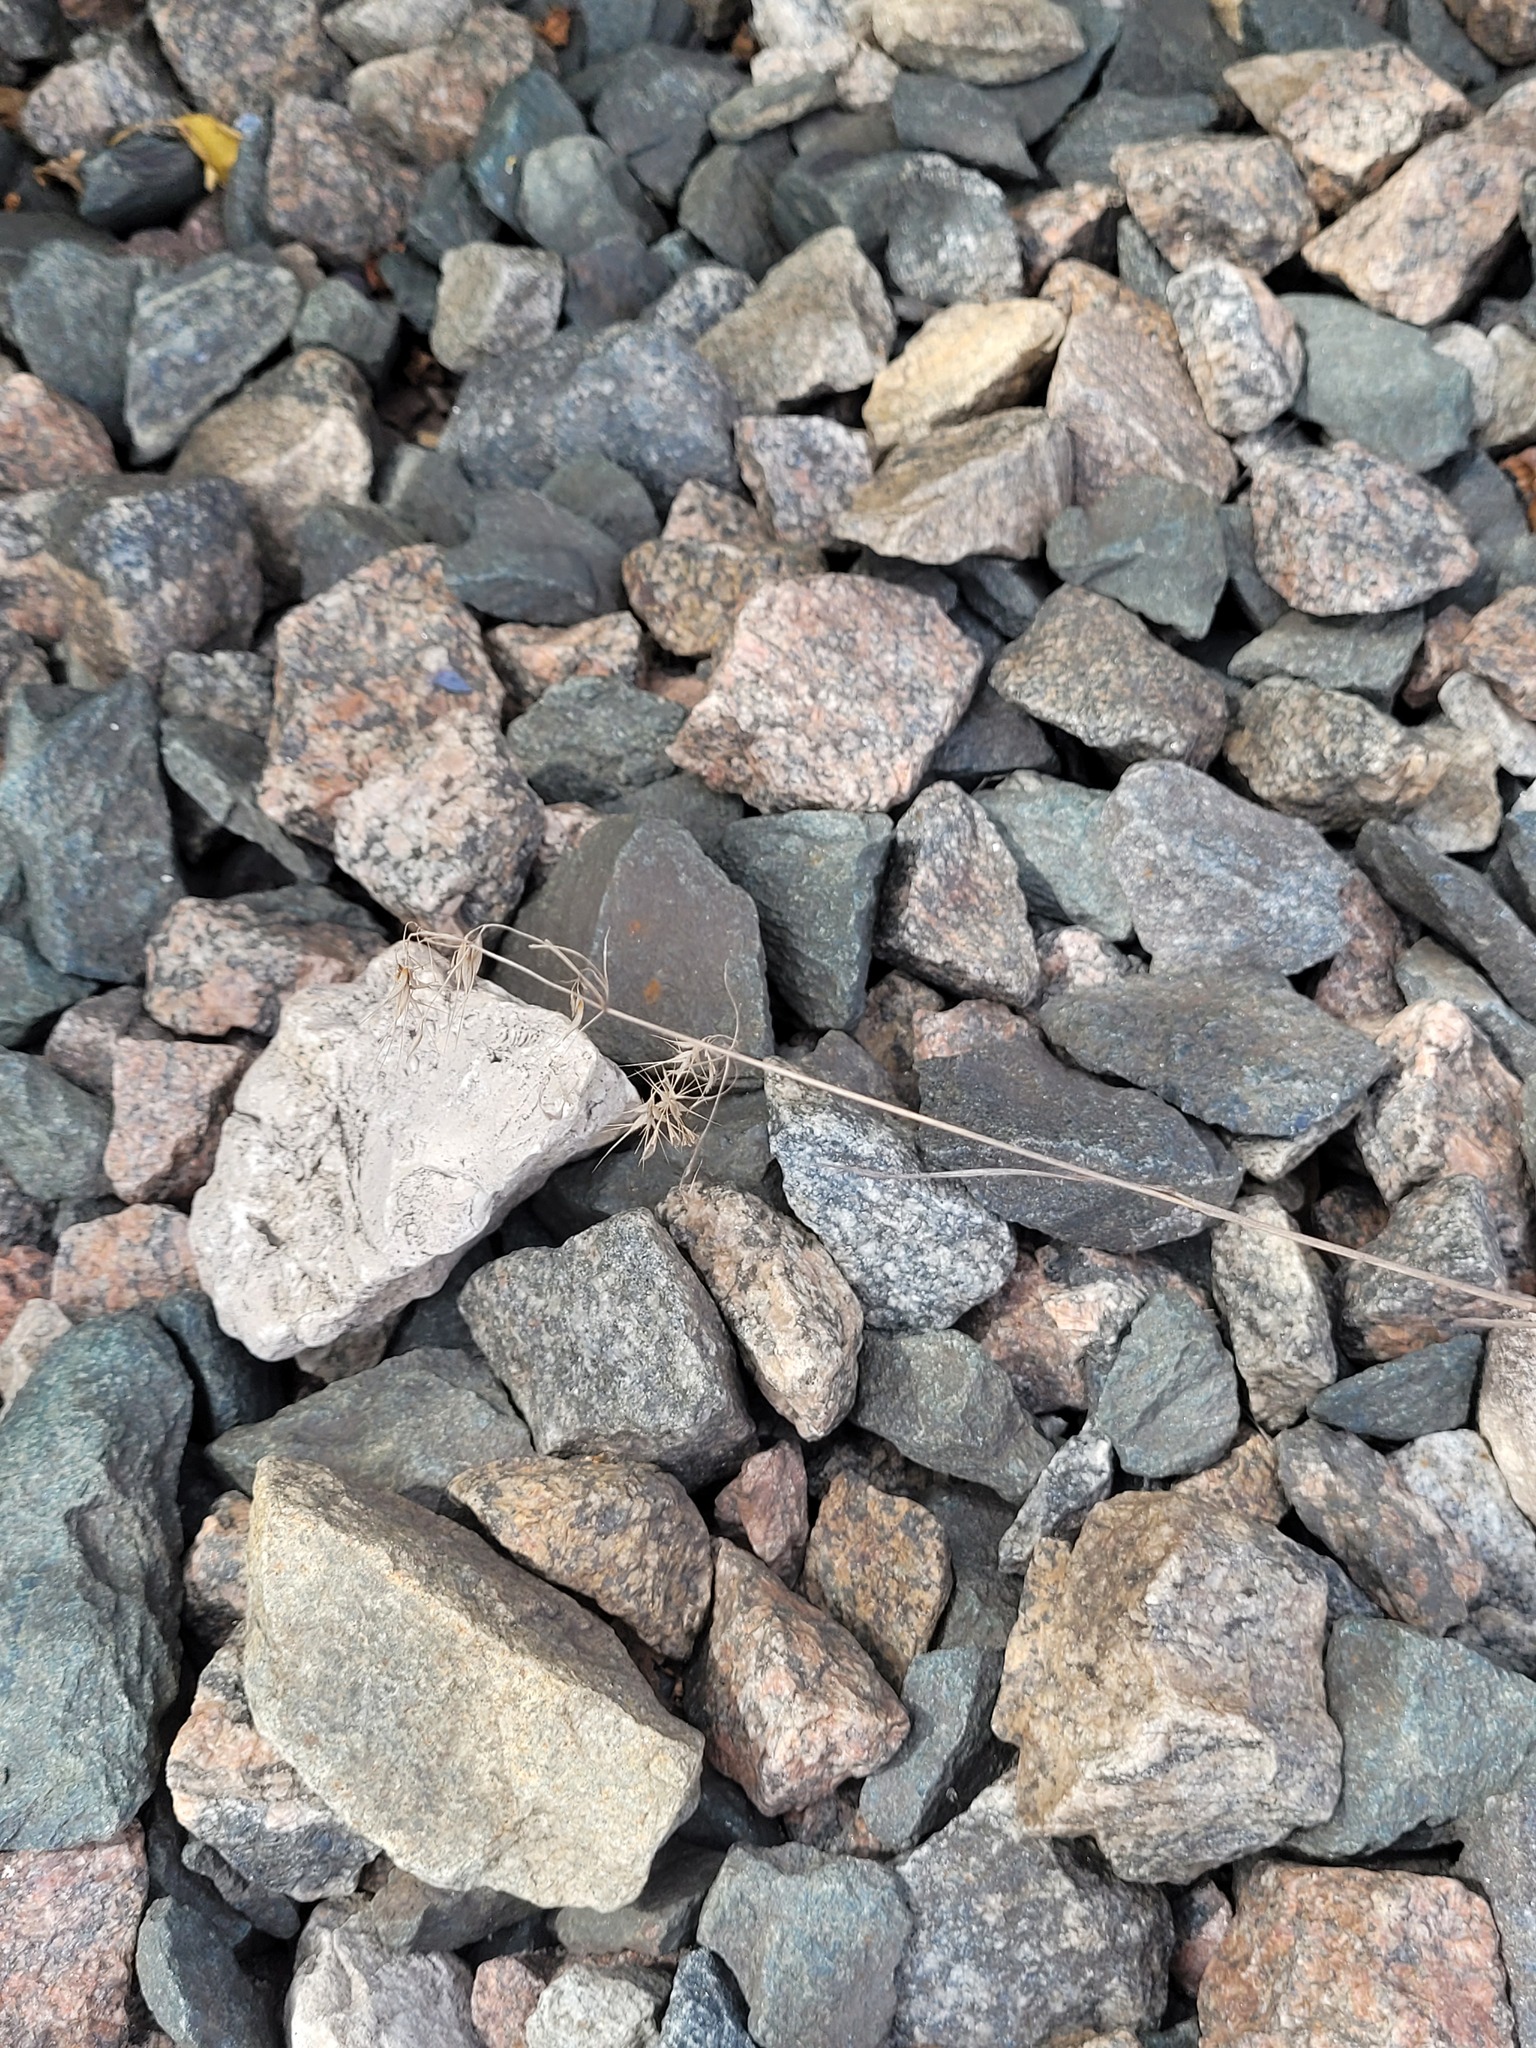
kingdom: Plantae
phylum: Tracheophyta
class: Liliopsida
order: Poales
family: Poaceae
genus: Bromus
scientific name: Bromus tectorum
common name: Cheatgrass
